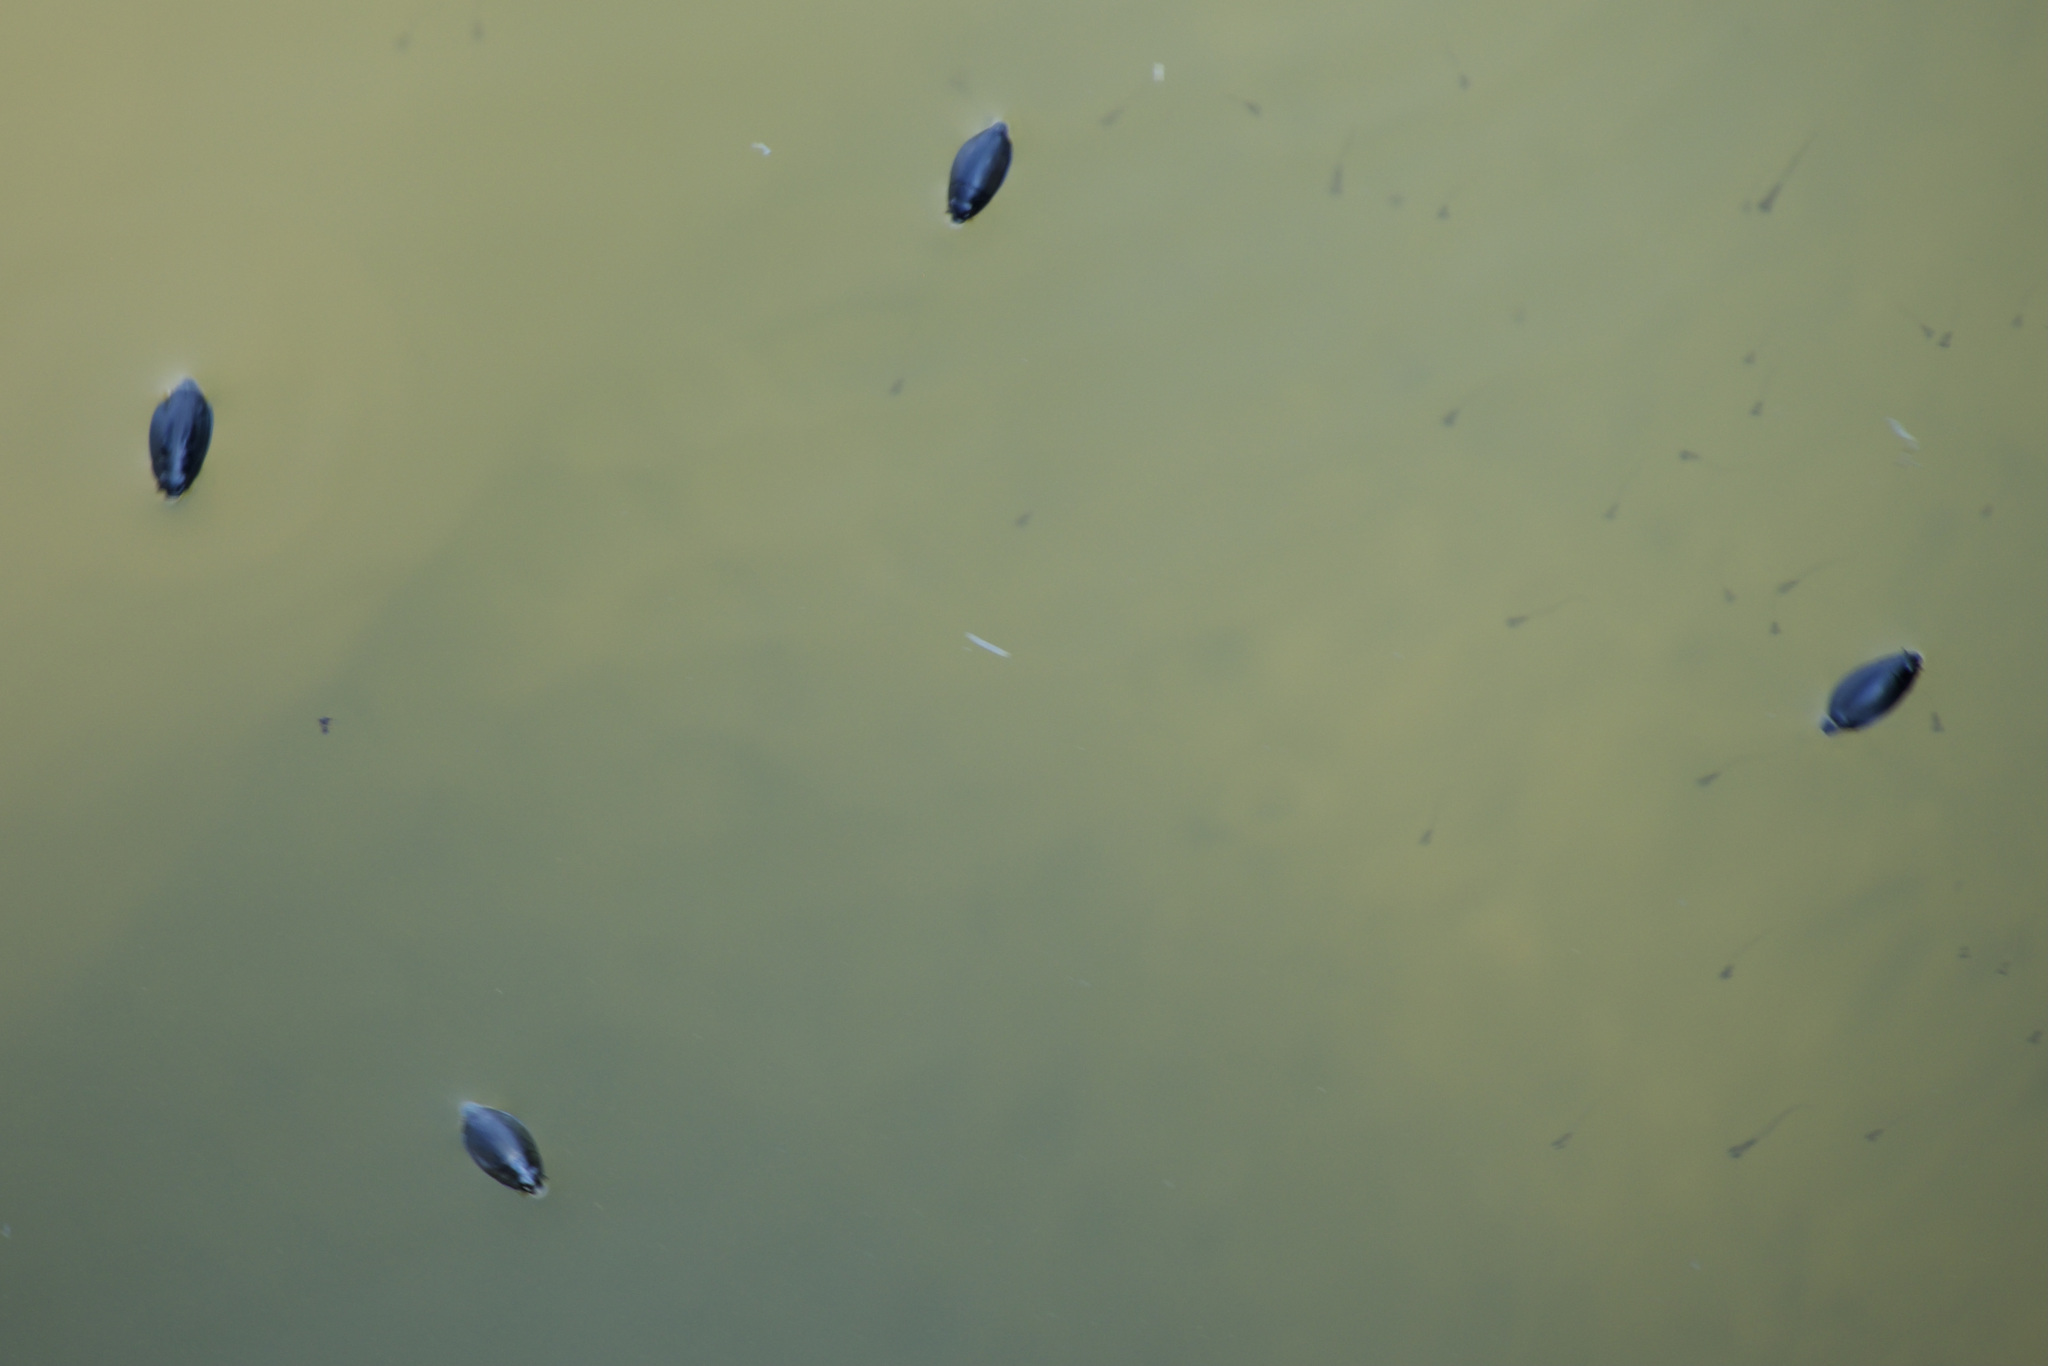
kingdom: Animalia
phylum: Arthropoda
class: Insecta
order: Coleoptera
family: Gyrinidae
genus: Dineutus
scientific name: Dineutus
